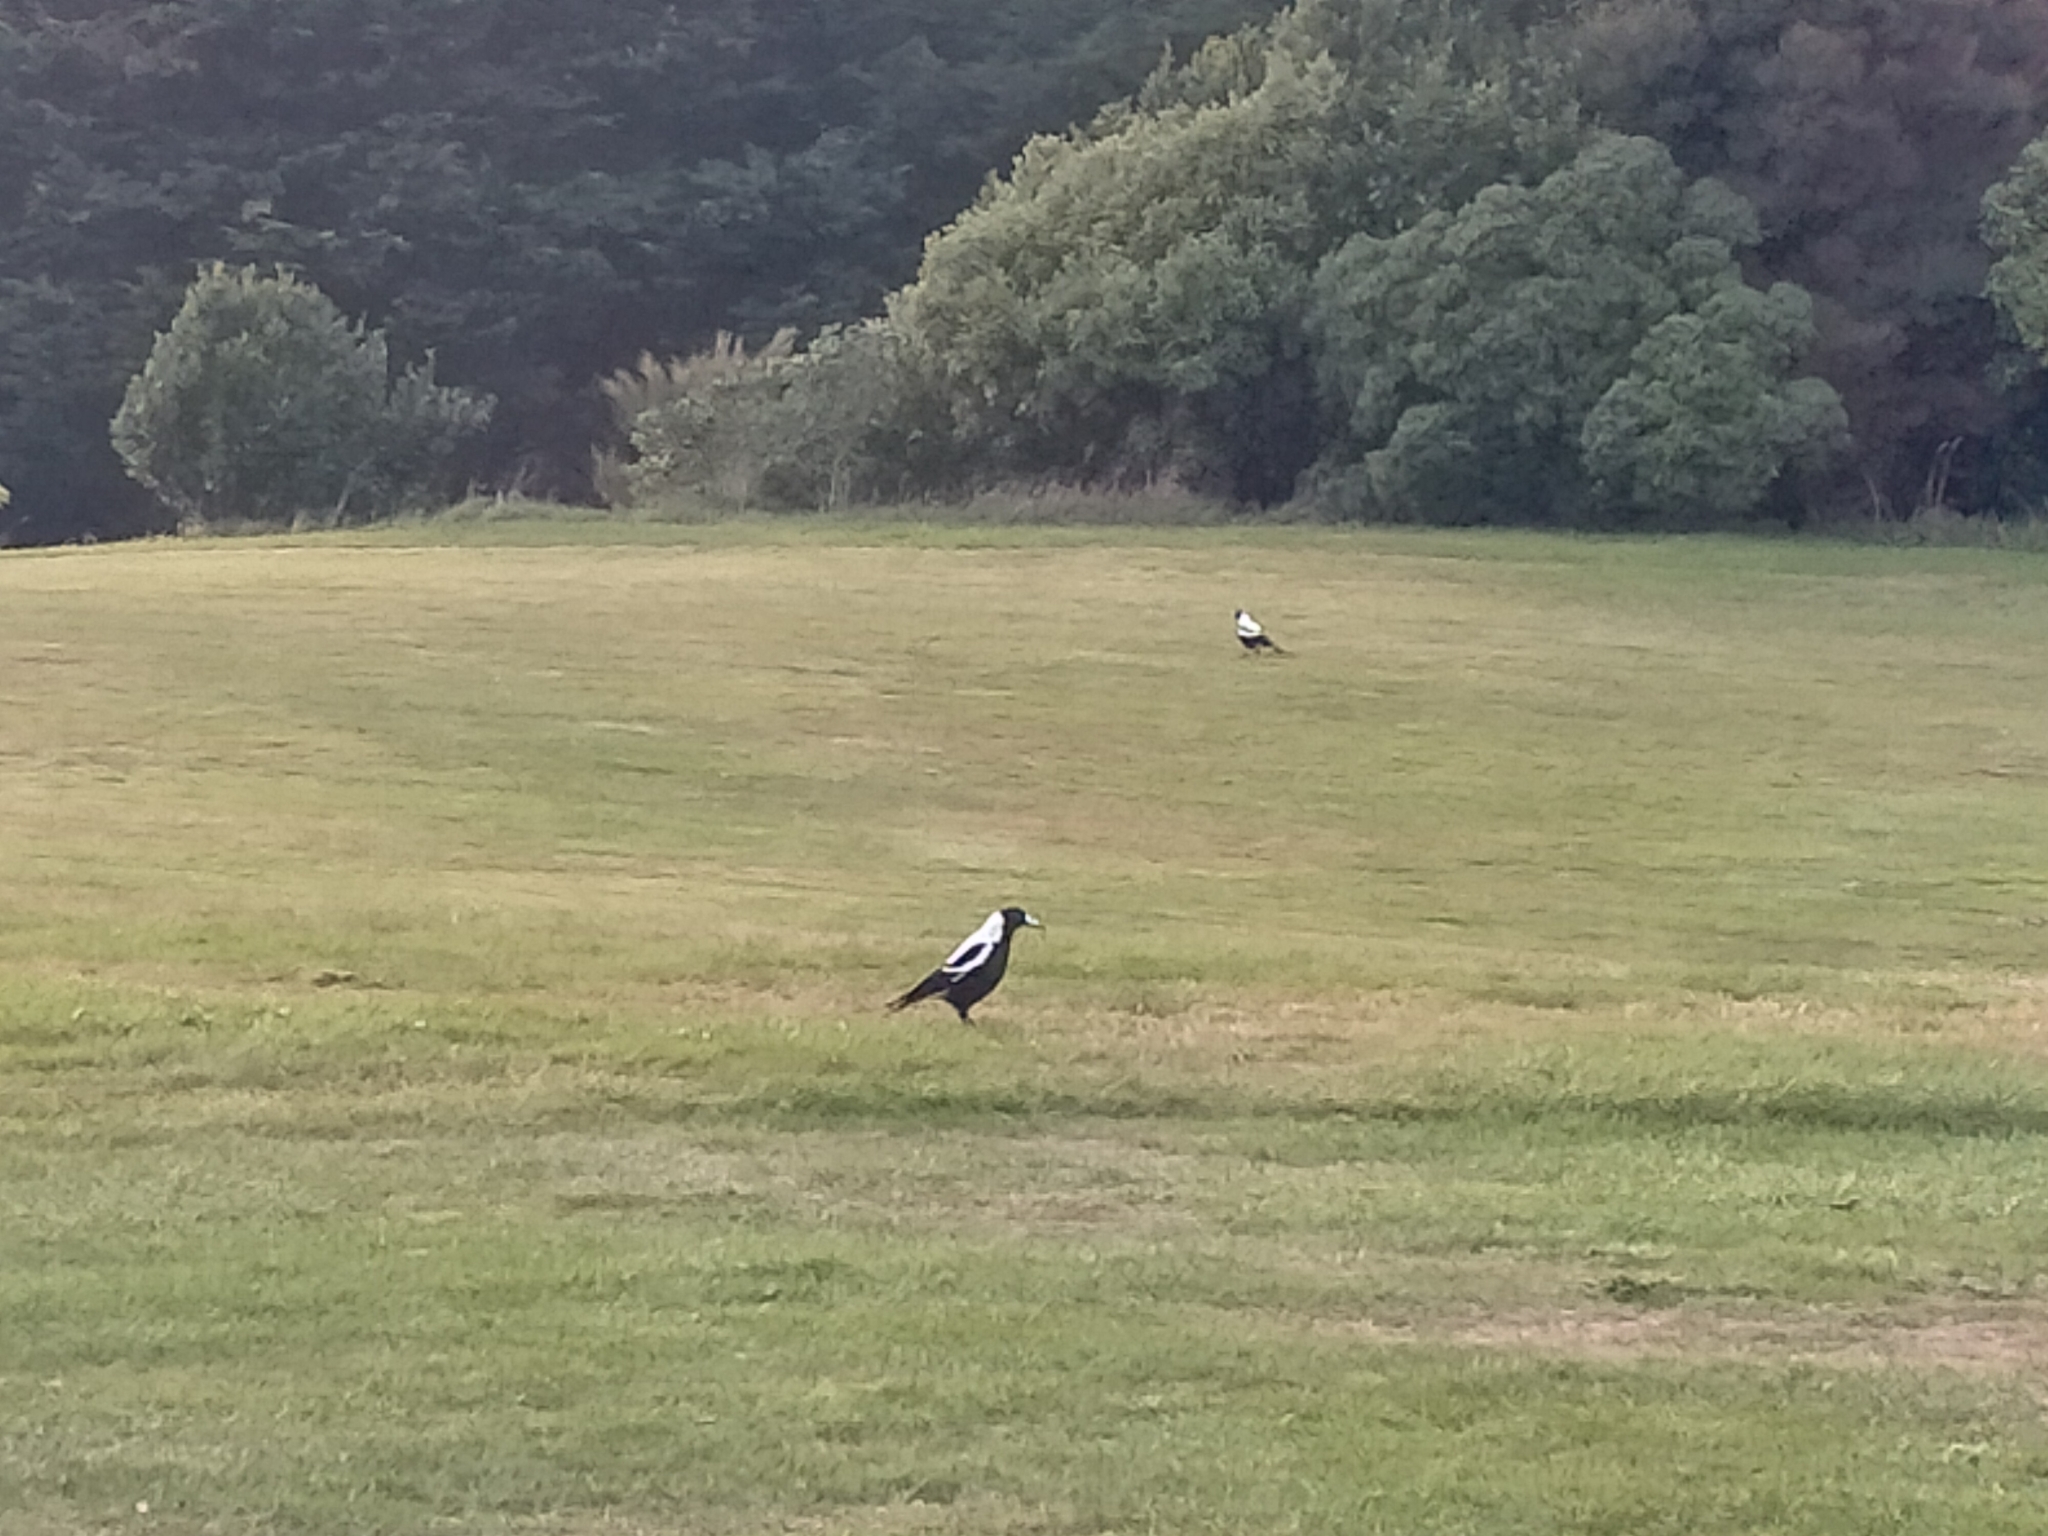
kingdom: Animalia
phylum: Chordata
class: Aves
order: Passeriformes
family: Cracticidae
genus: Gymnorhina
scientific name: Gymnorhina tibicen
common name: Australian magpie
